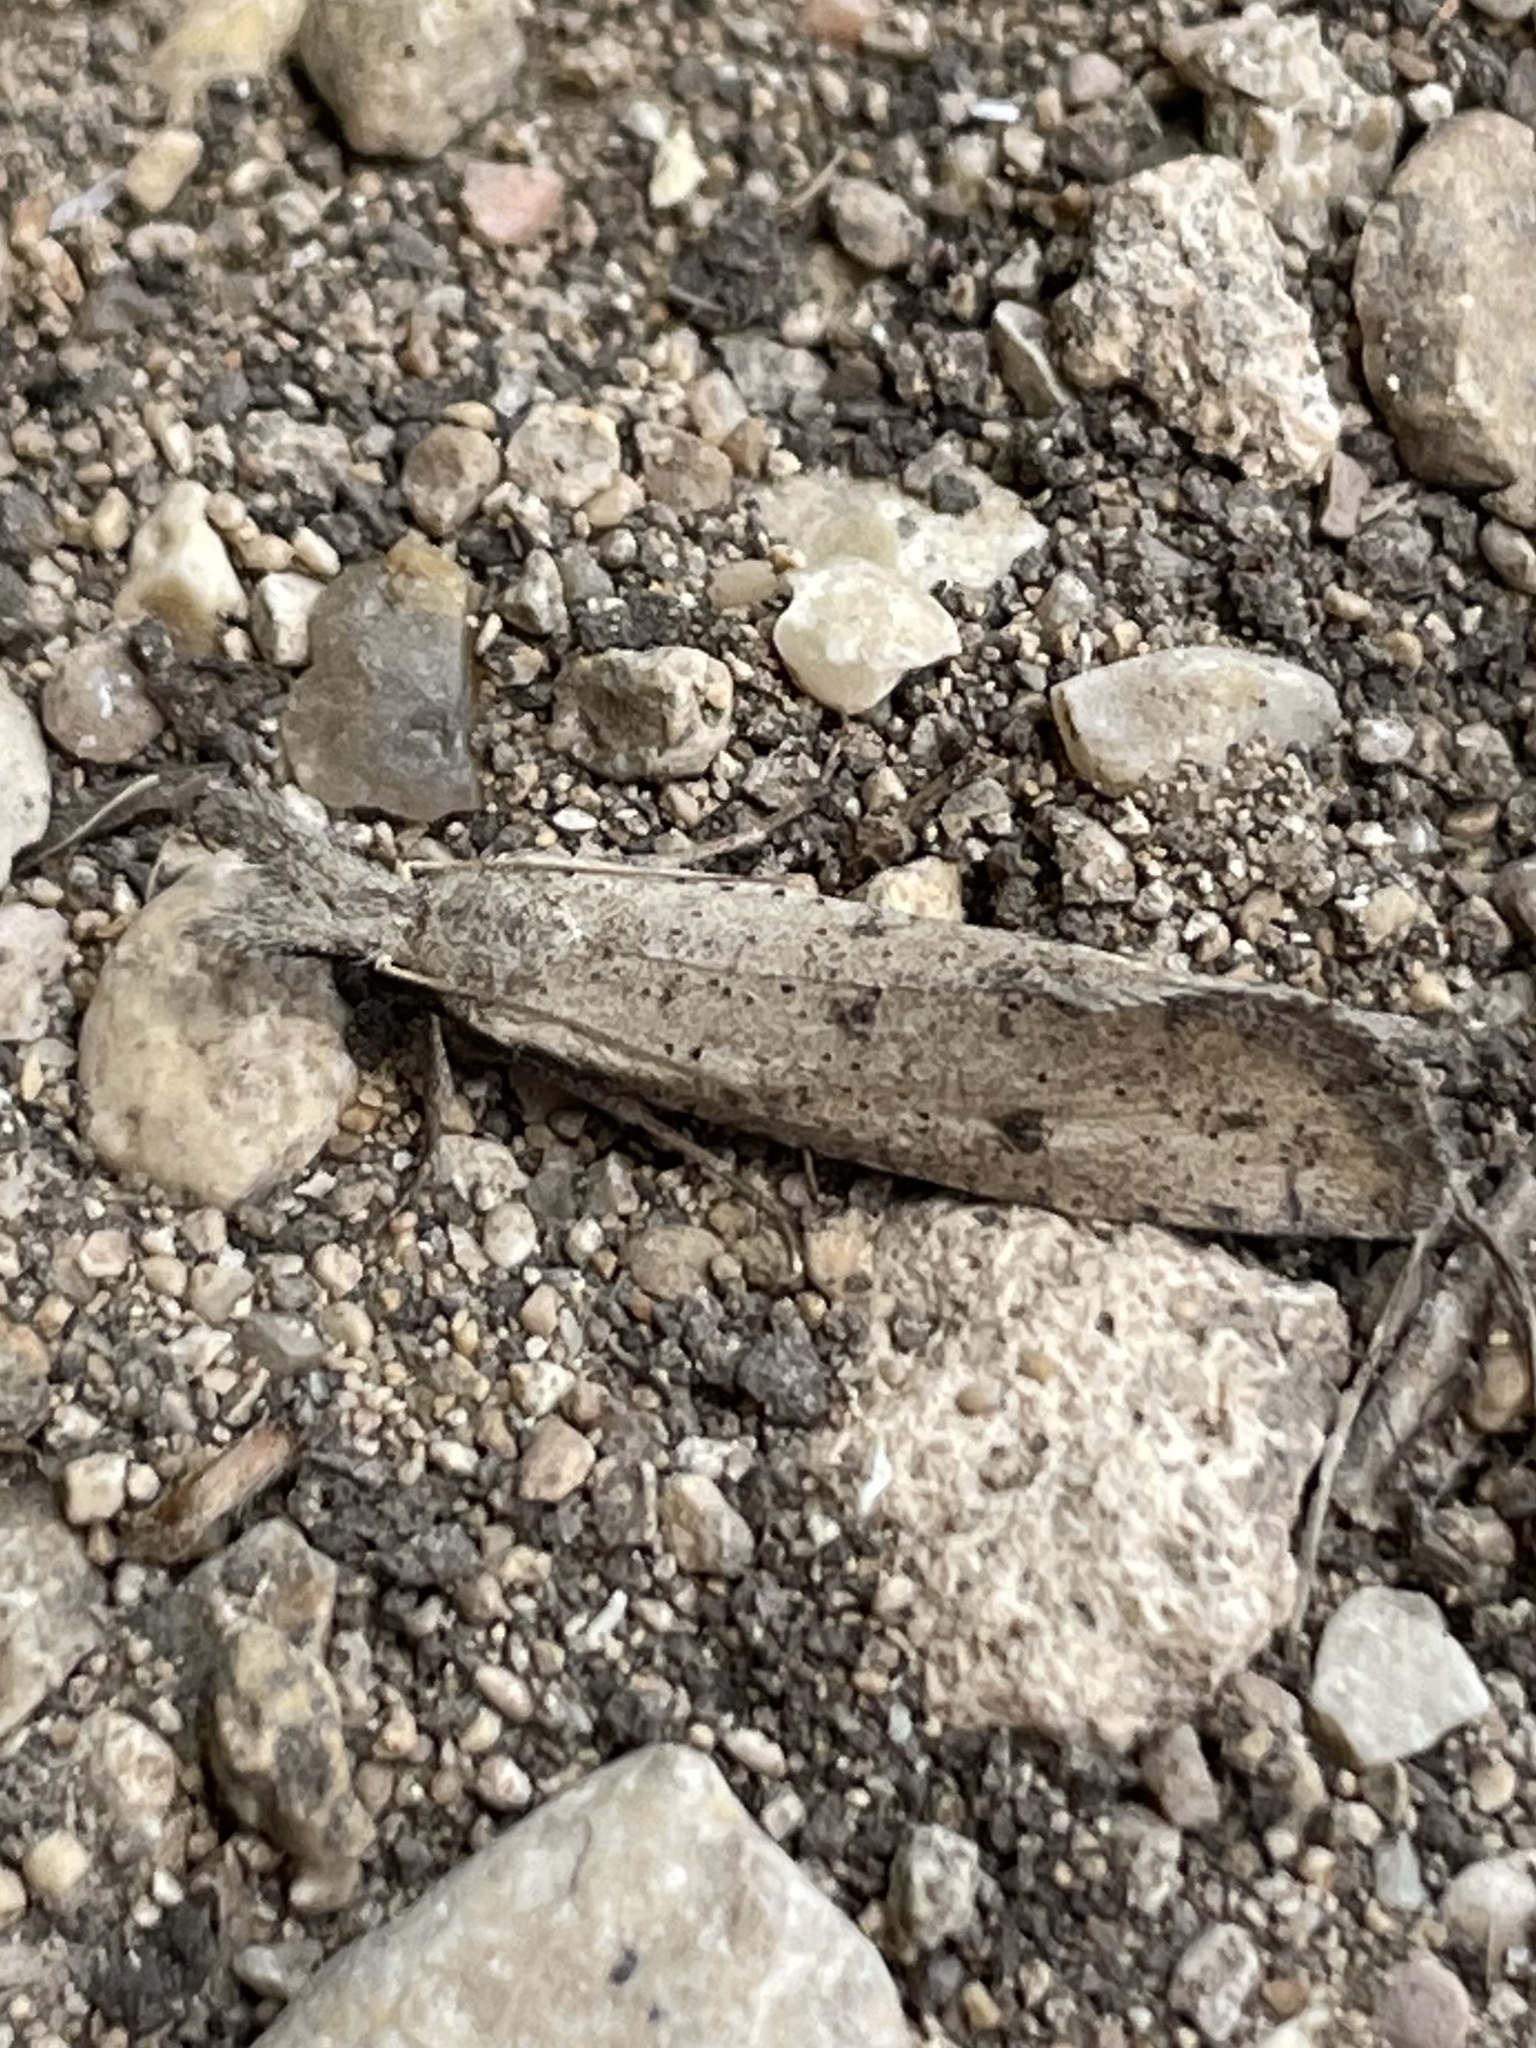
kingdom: Animalia
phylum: Arthropoda
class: Insecta
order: Lepidoptera
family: Tineidae
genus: Acrolophus
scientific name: Acrolophus mortipennella
